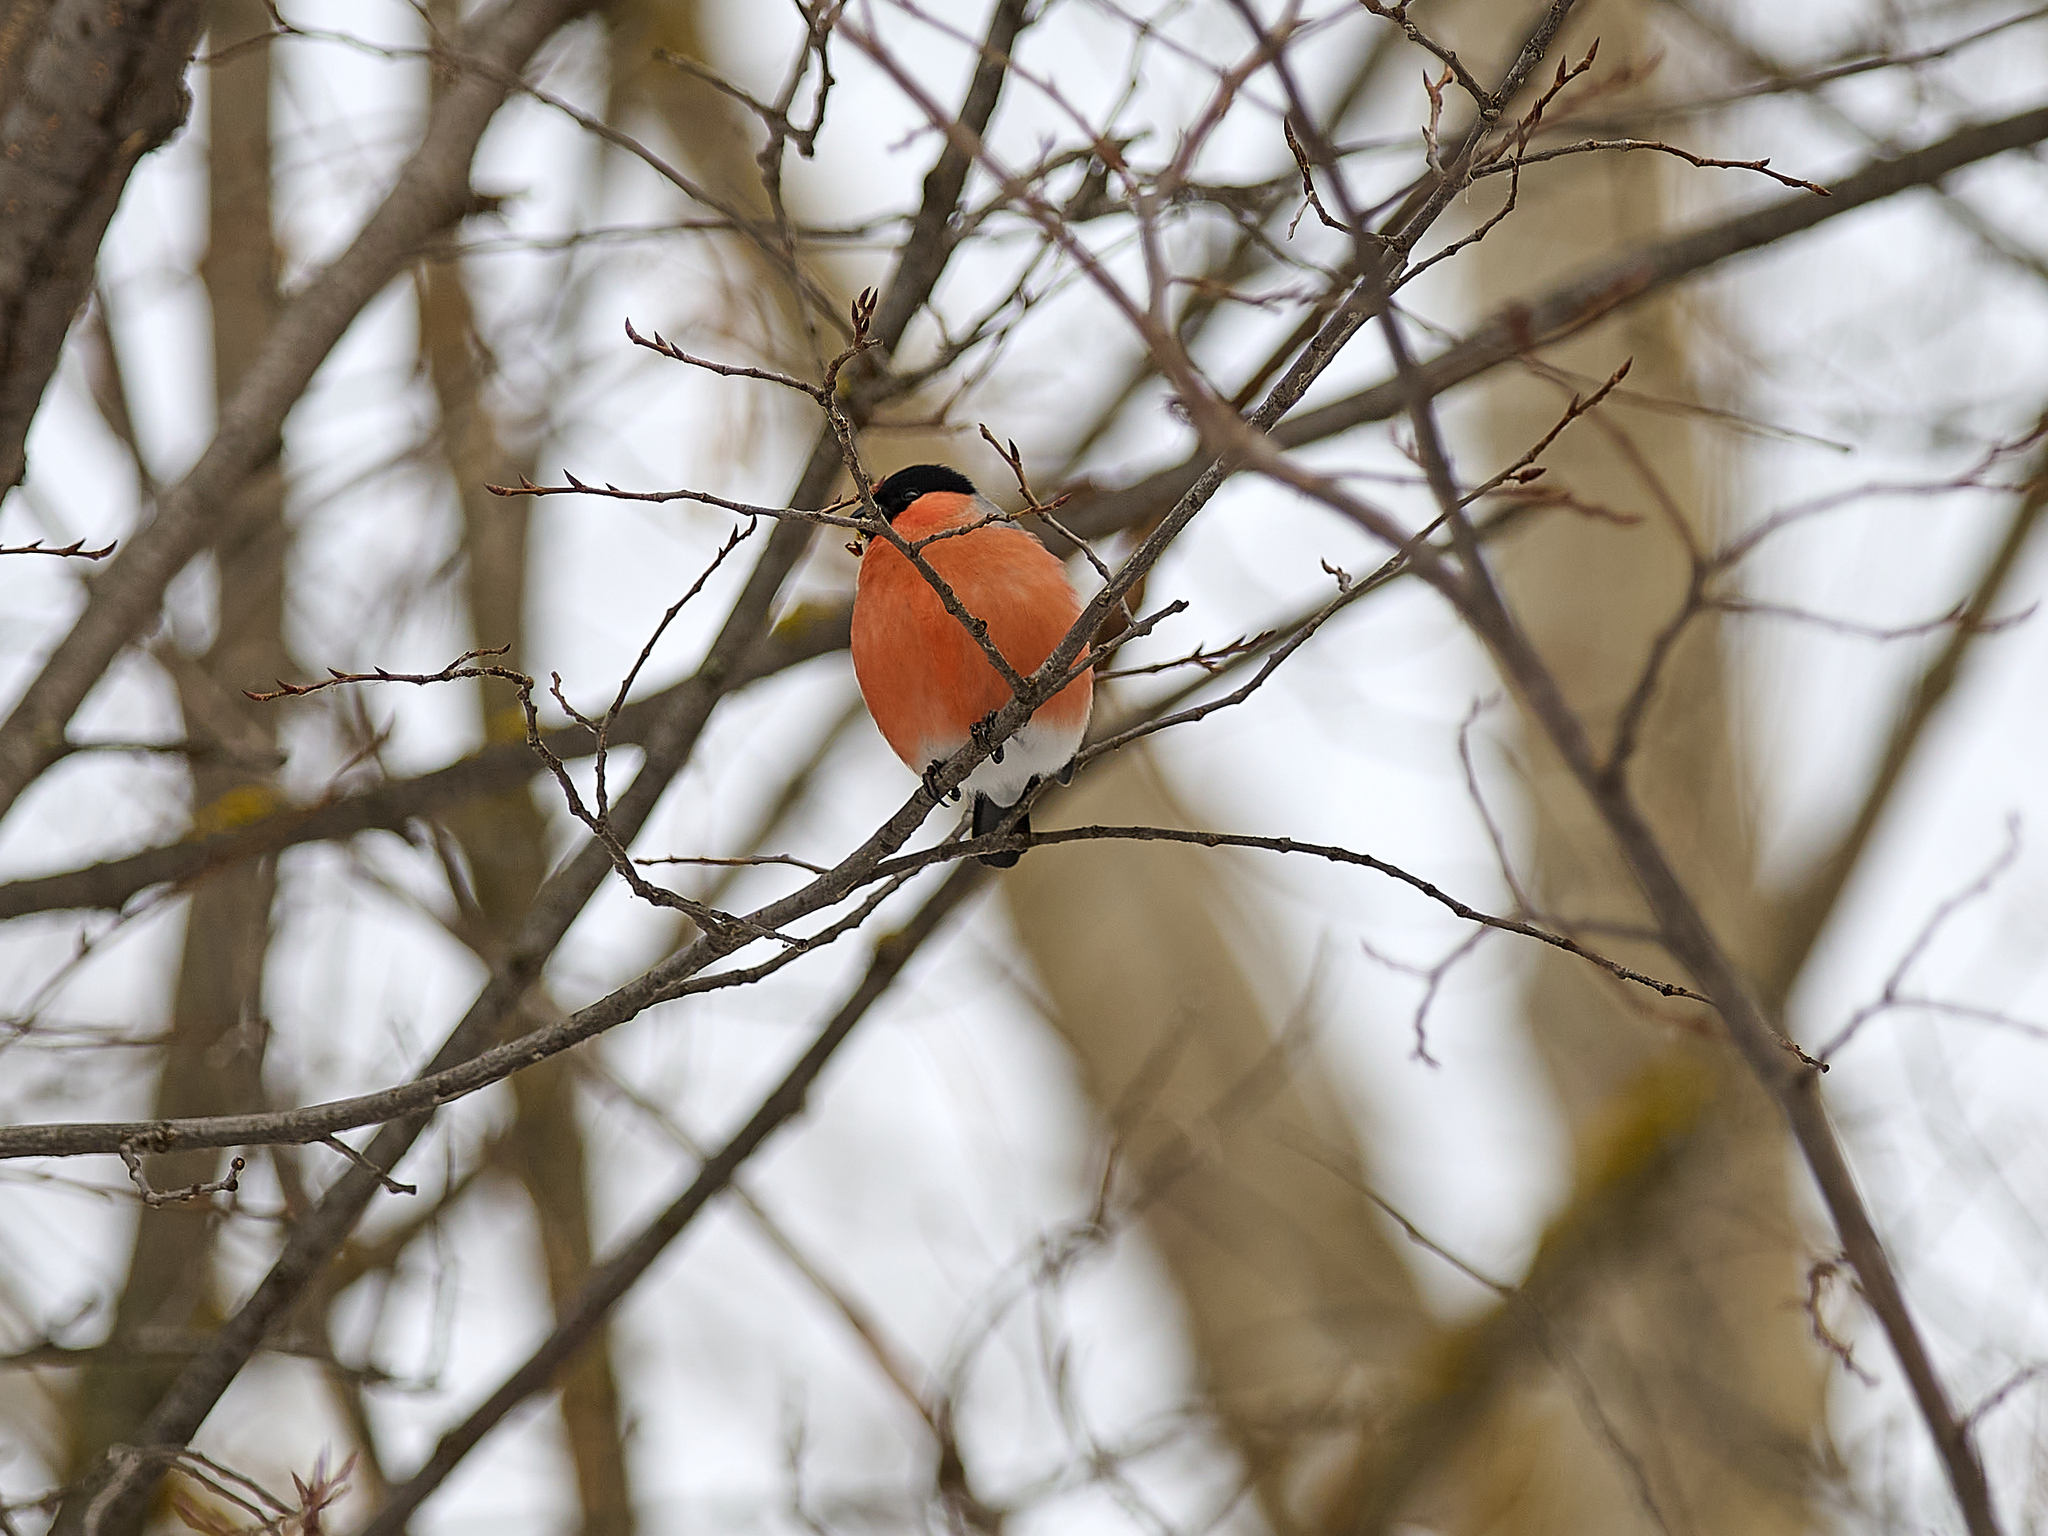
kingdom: Animalia
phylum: Chordata
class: Aves
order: Passeriformes
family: Fringillidae
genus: Pyrrhula
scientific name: Pyrrhula pyrrhula
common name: Eurasian bullfinch
